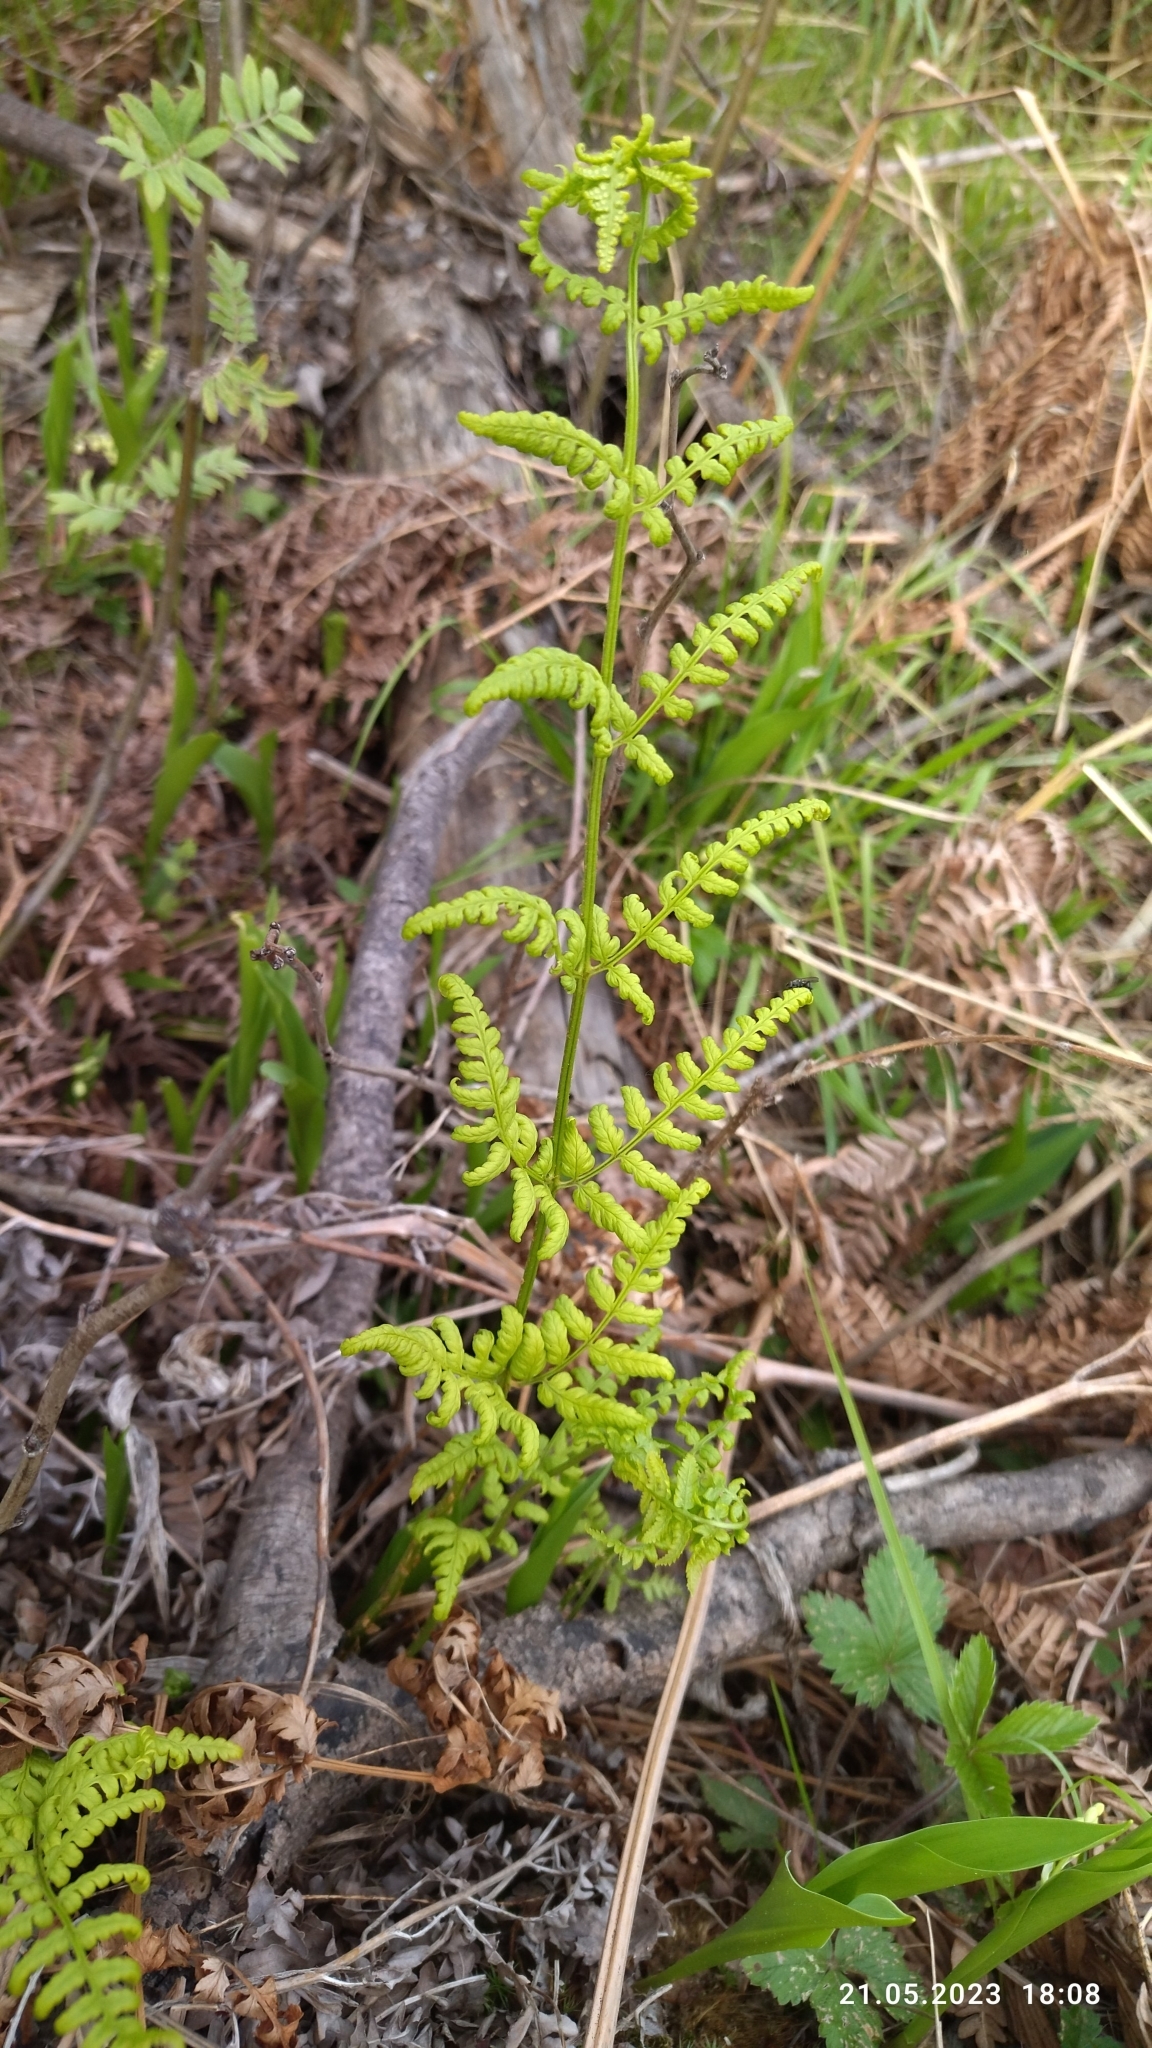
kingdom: Plantae
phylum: Tracheophyta
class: Polypodiopsida
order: Polypodiales
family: Dryopteridaceae
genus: Dryopteris
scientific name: Dryopteris carthusiana
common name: Narrow buckler-fern
